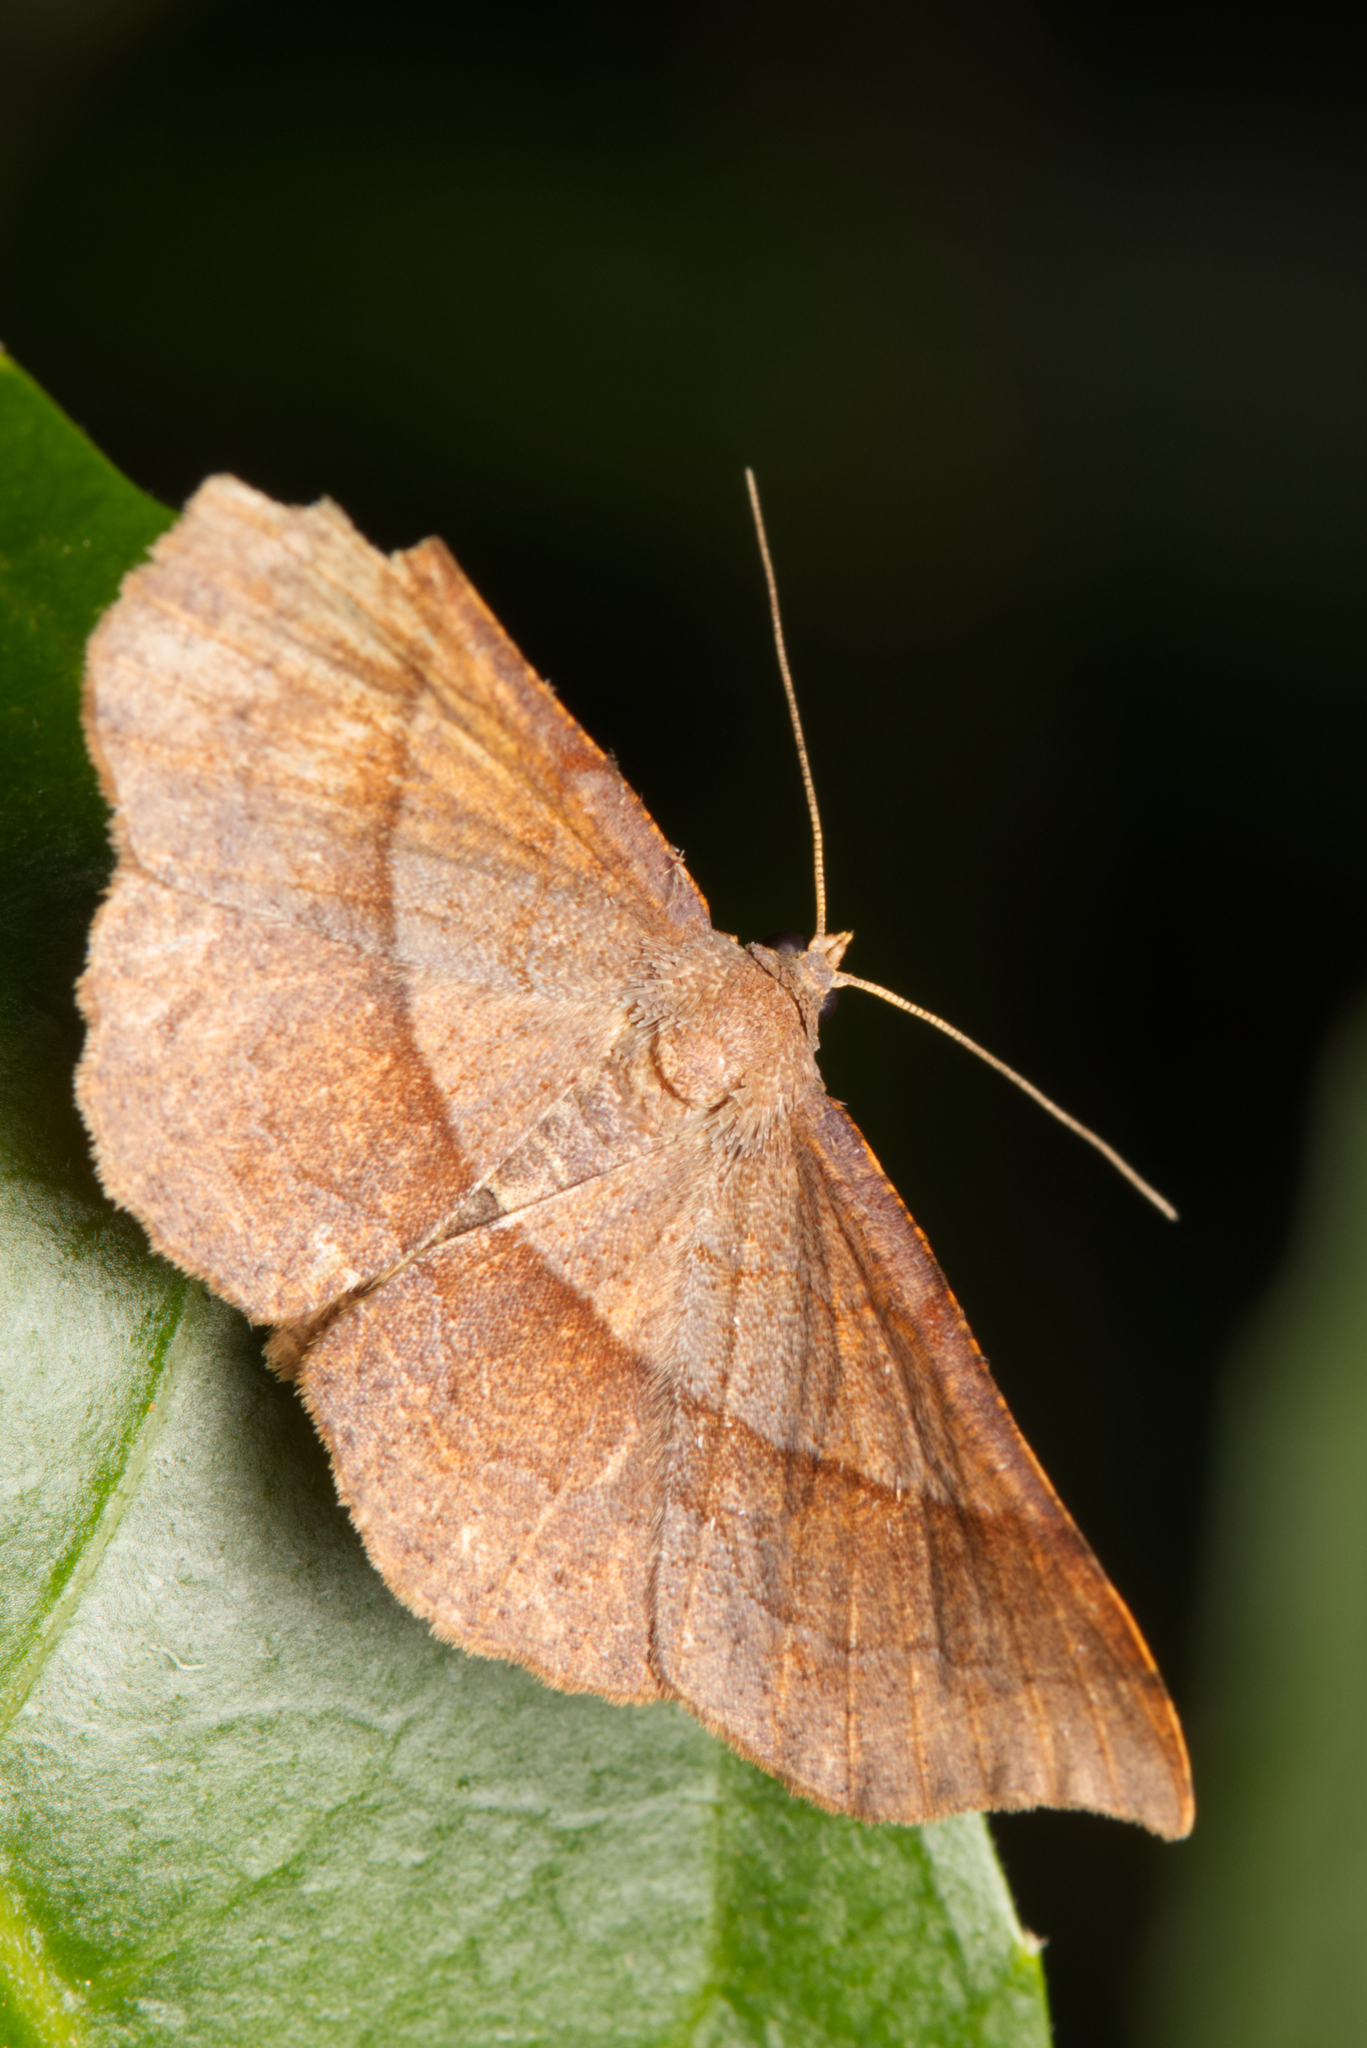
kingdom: Animalia
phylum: Arthropoda
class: Insecta
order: Lepidoptera
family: Geometridae
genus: Urostola
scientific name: Urostola magica
